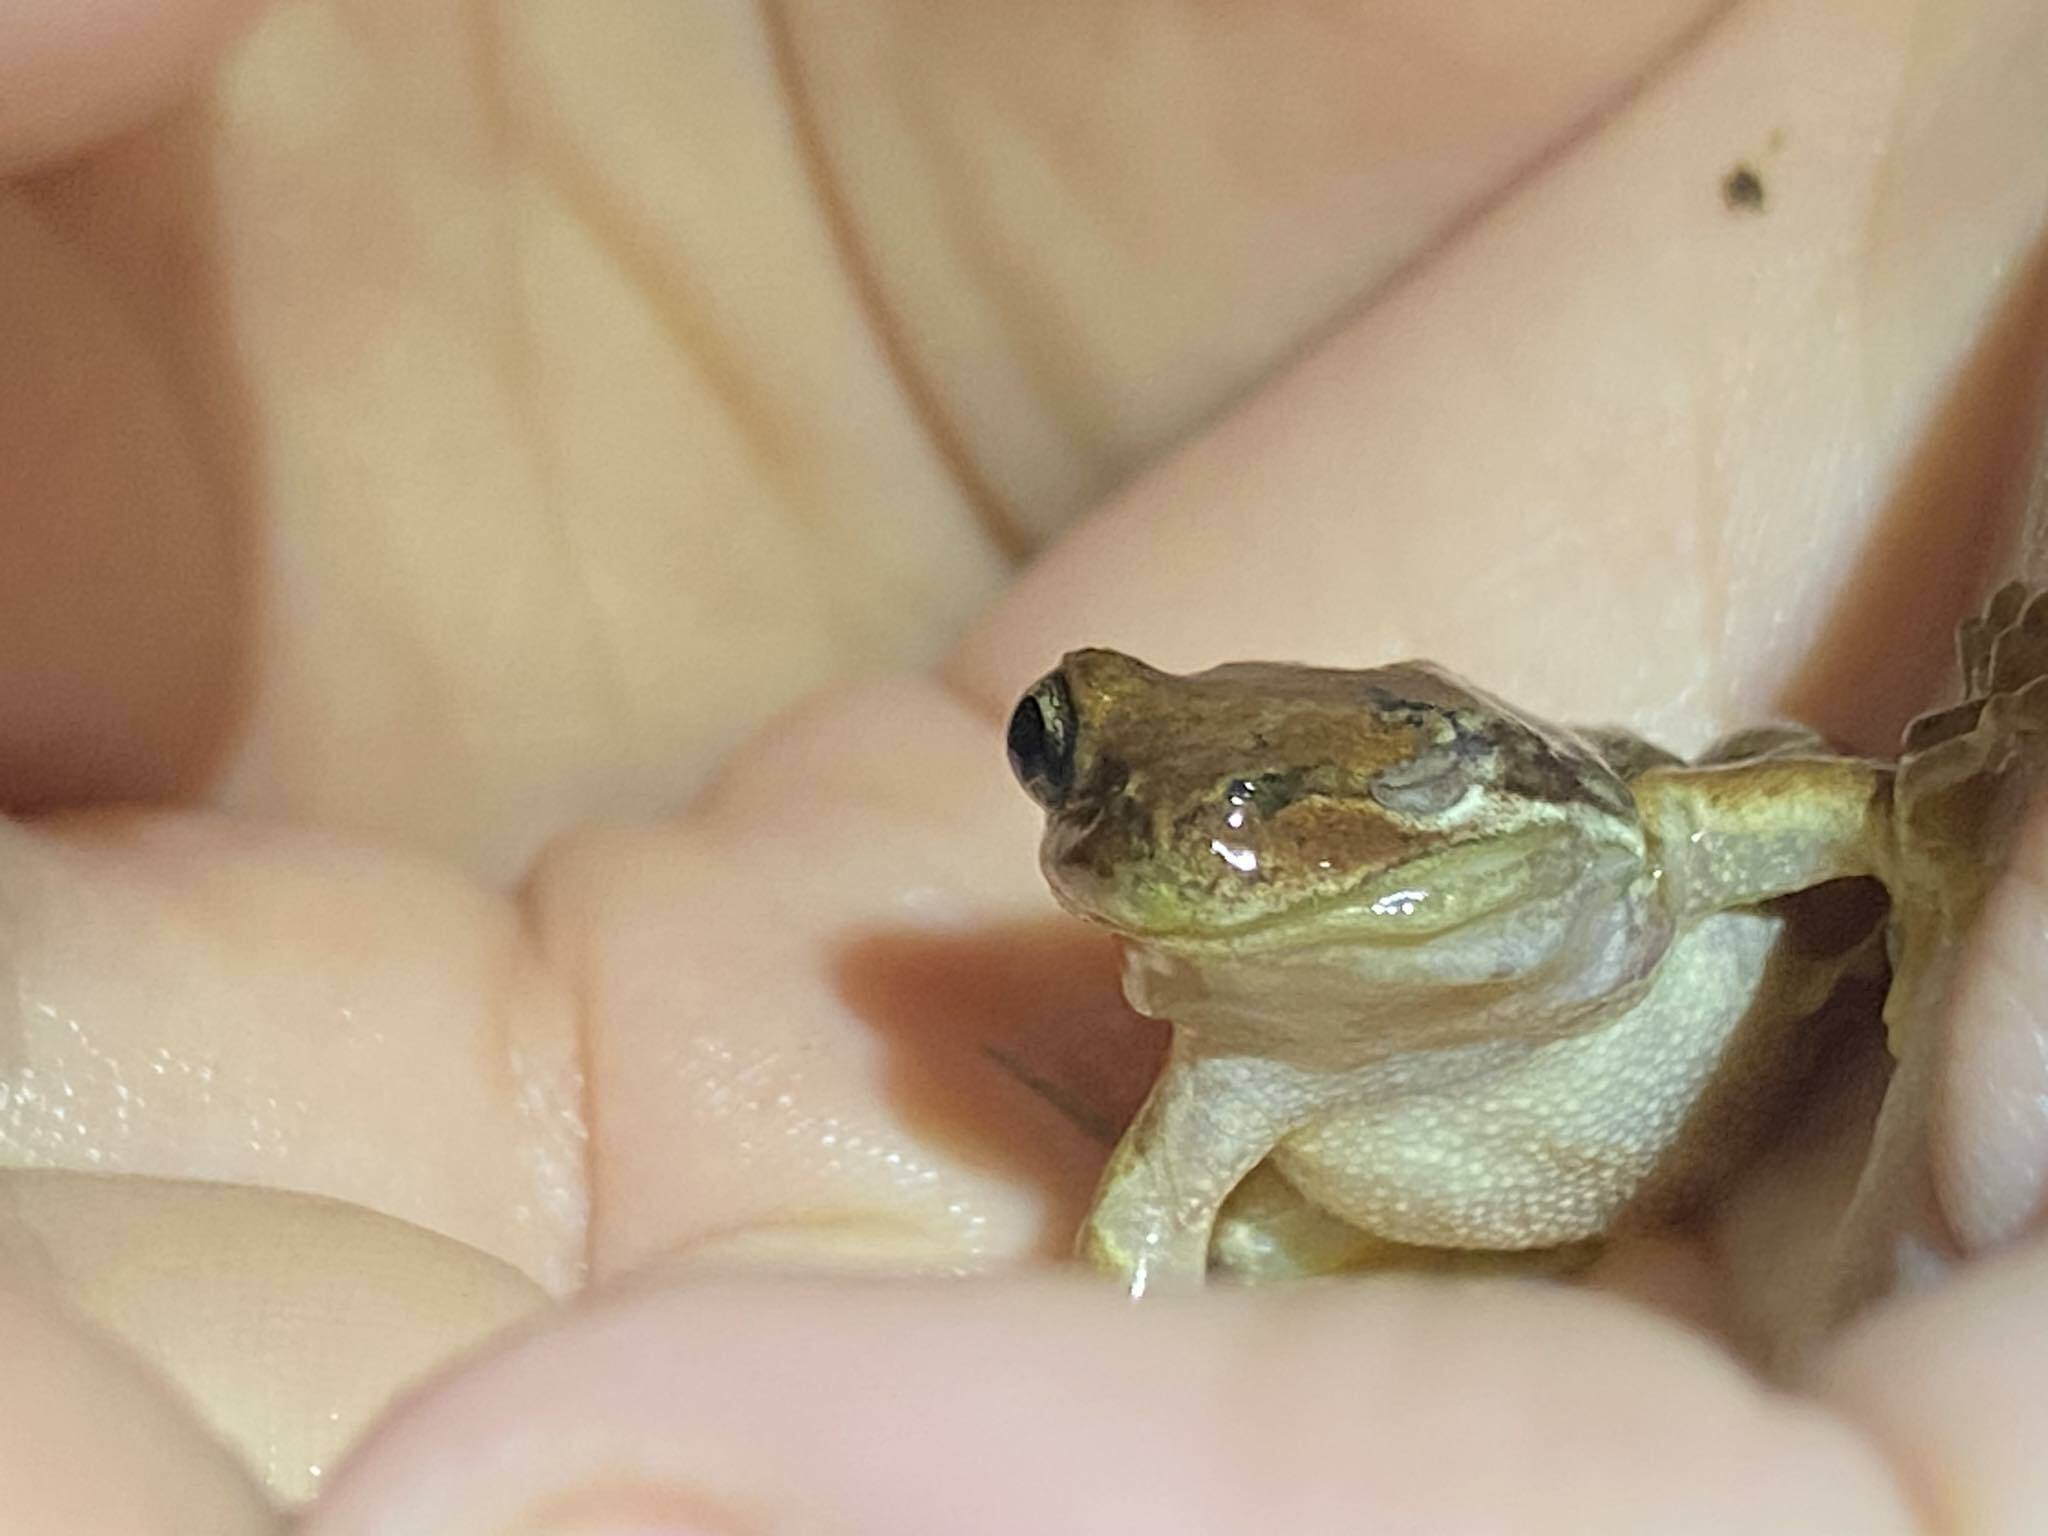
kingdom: Animalia
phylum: Chordata
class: Amphibia
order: Anura
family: Pelodryadidae
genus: Litoria
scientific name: Litoria ewingii
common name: Southern brown tree frog
